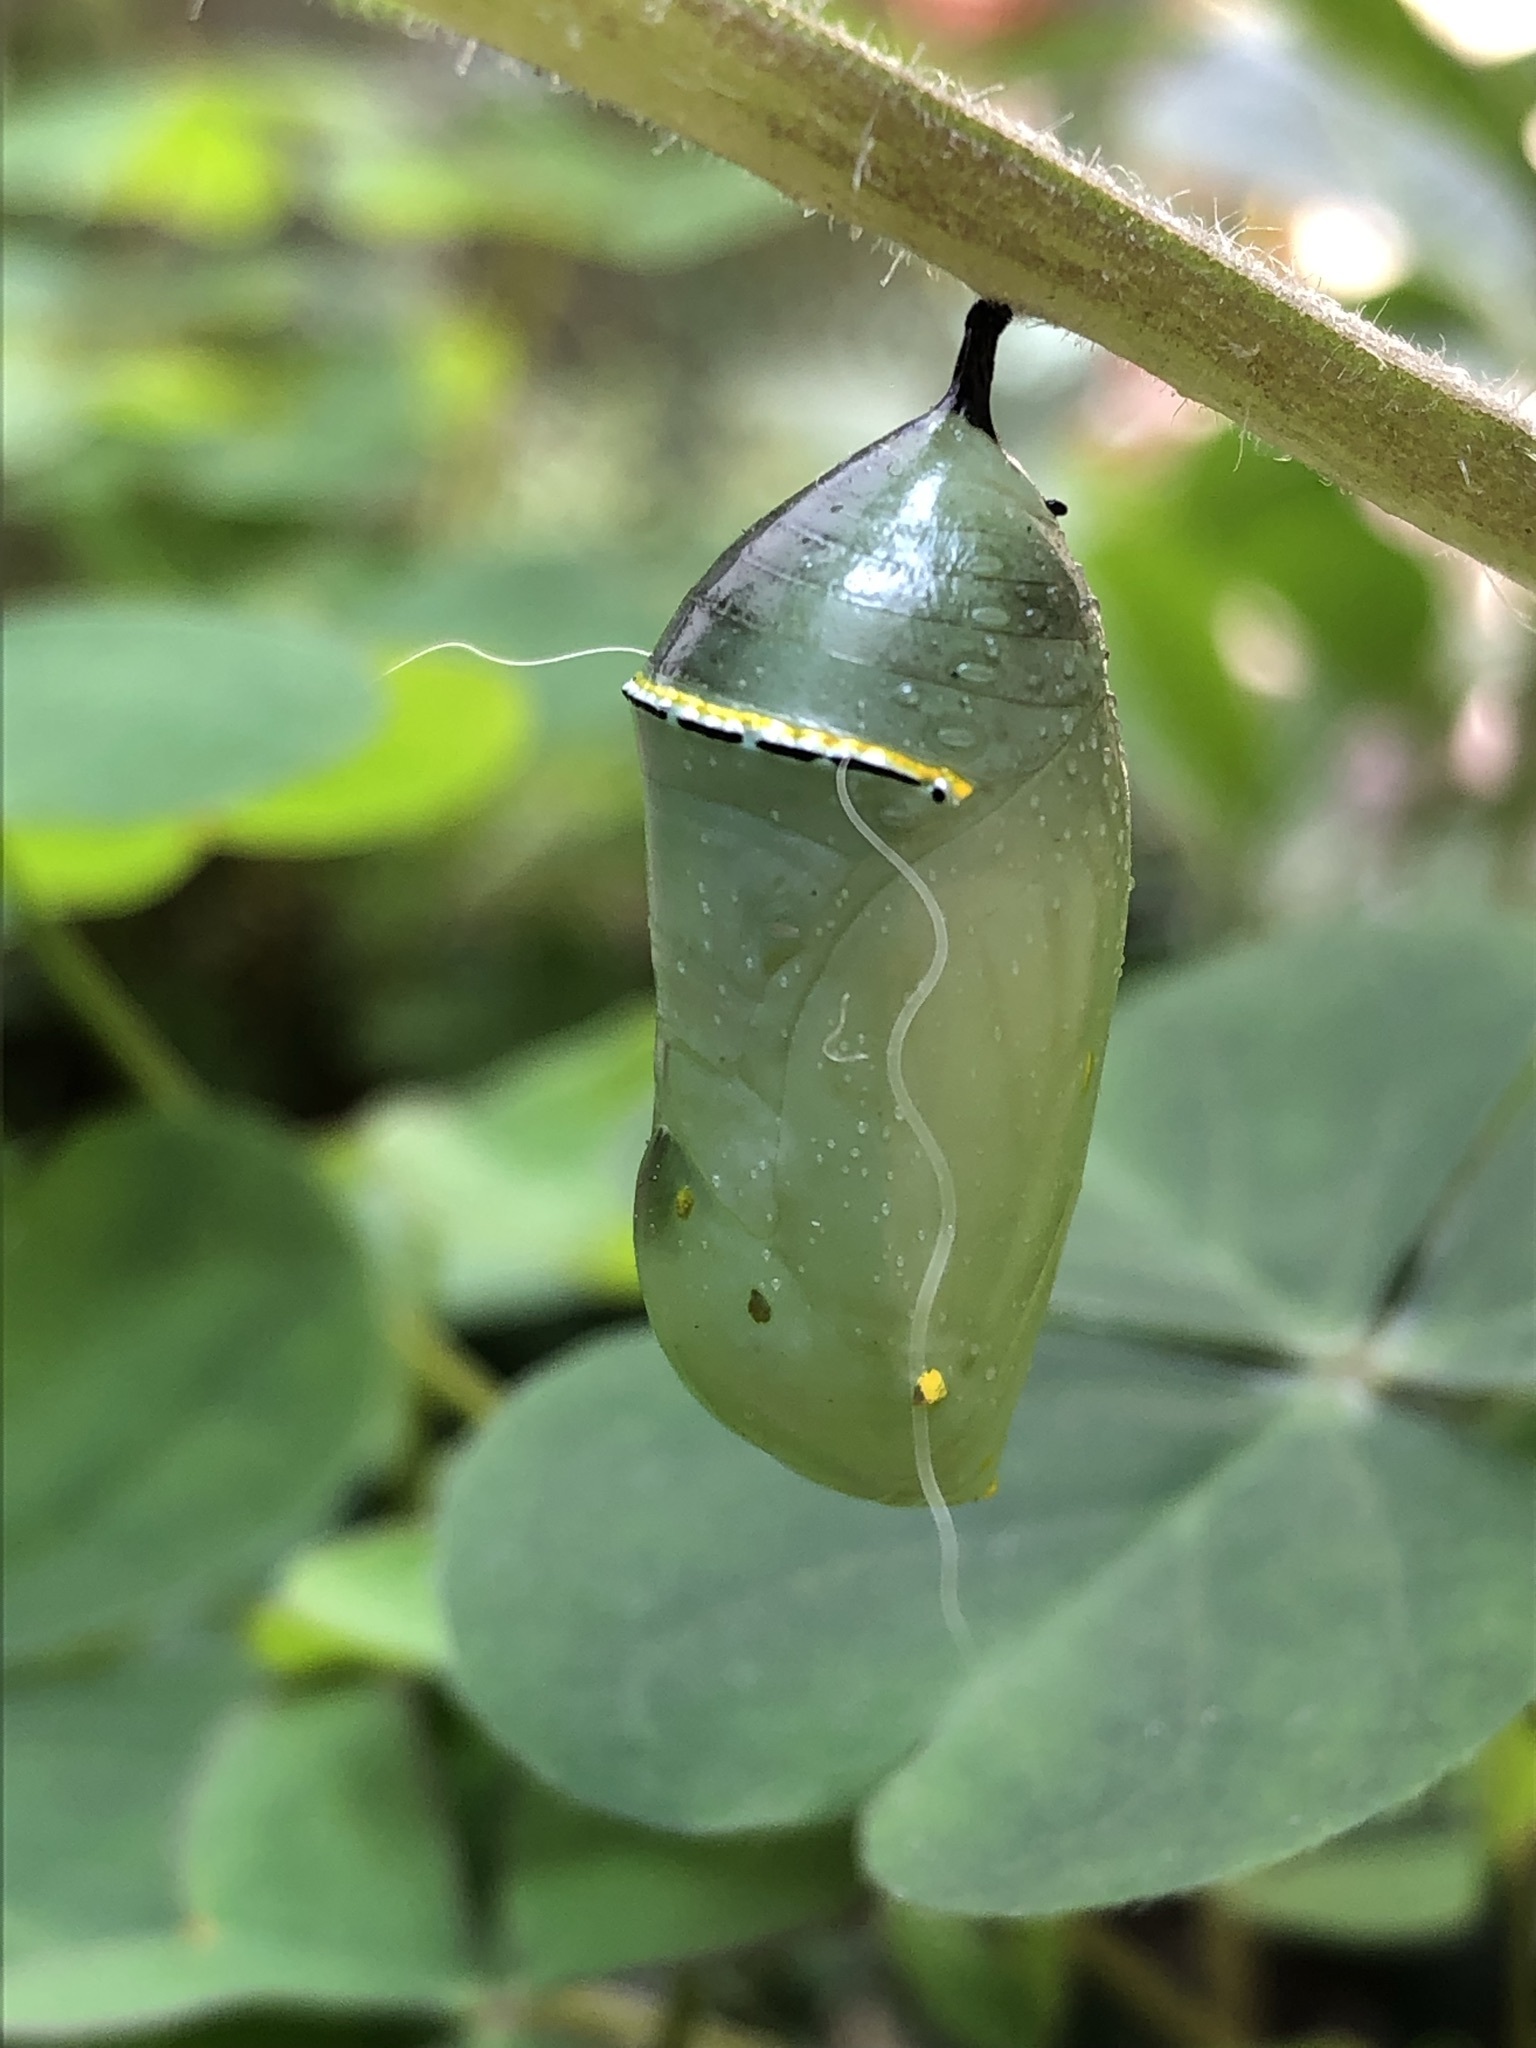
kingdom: Animalia
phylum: Arthropoda
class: Insecta
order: Lepidoptera
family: Nymphalidae
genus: Danaus
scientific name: Danaus plexippus
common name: Monarch
